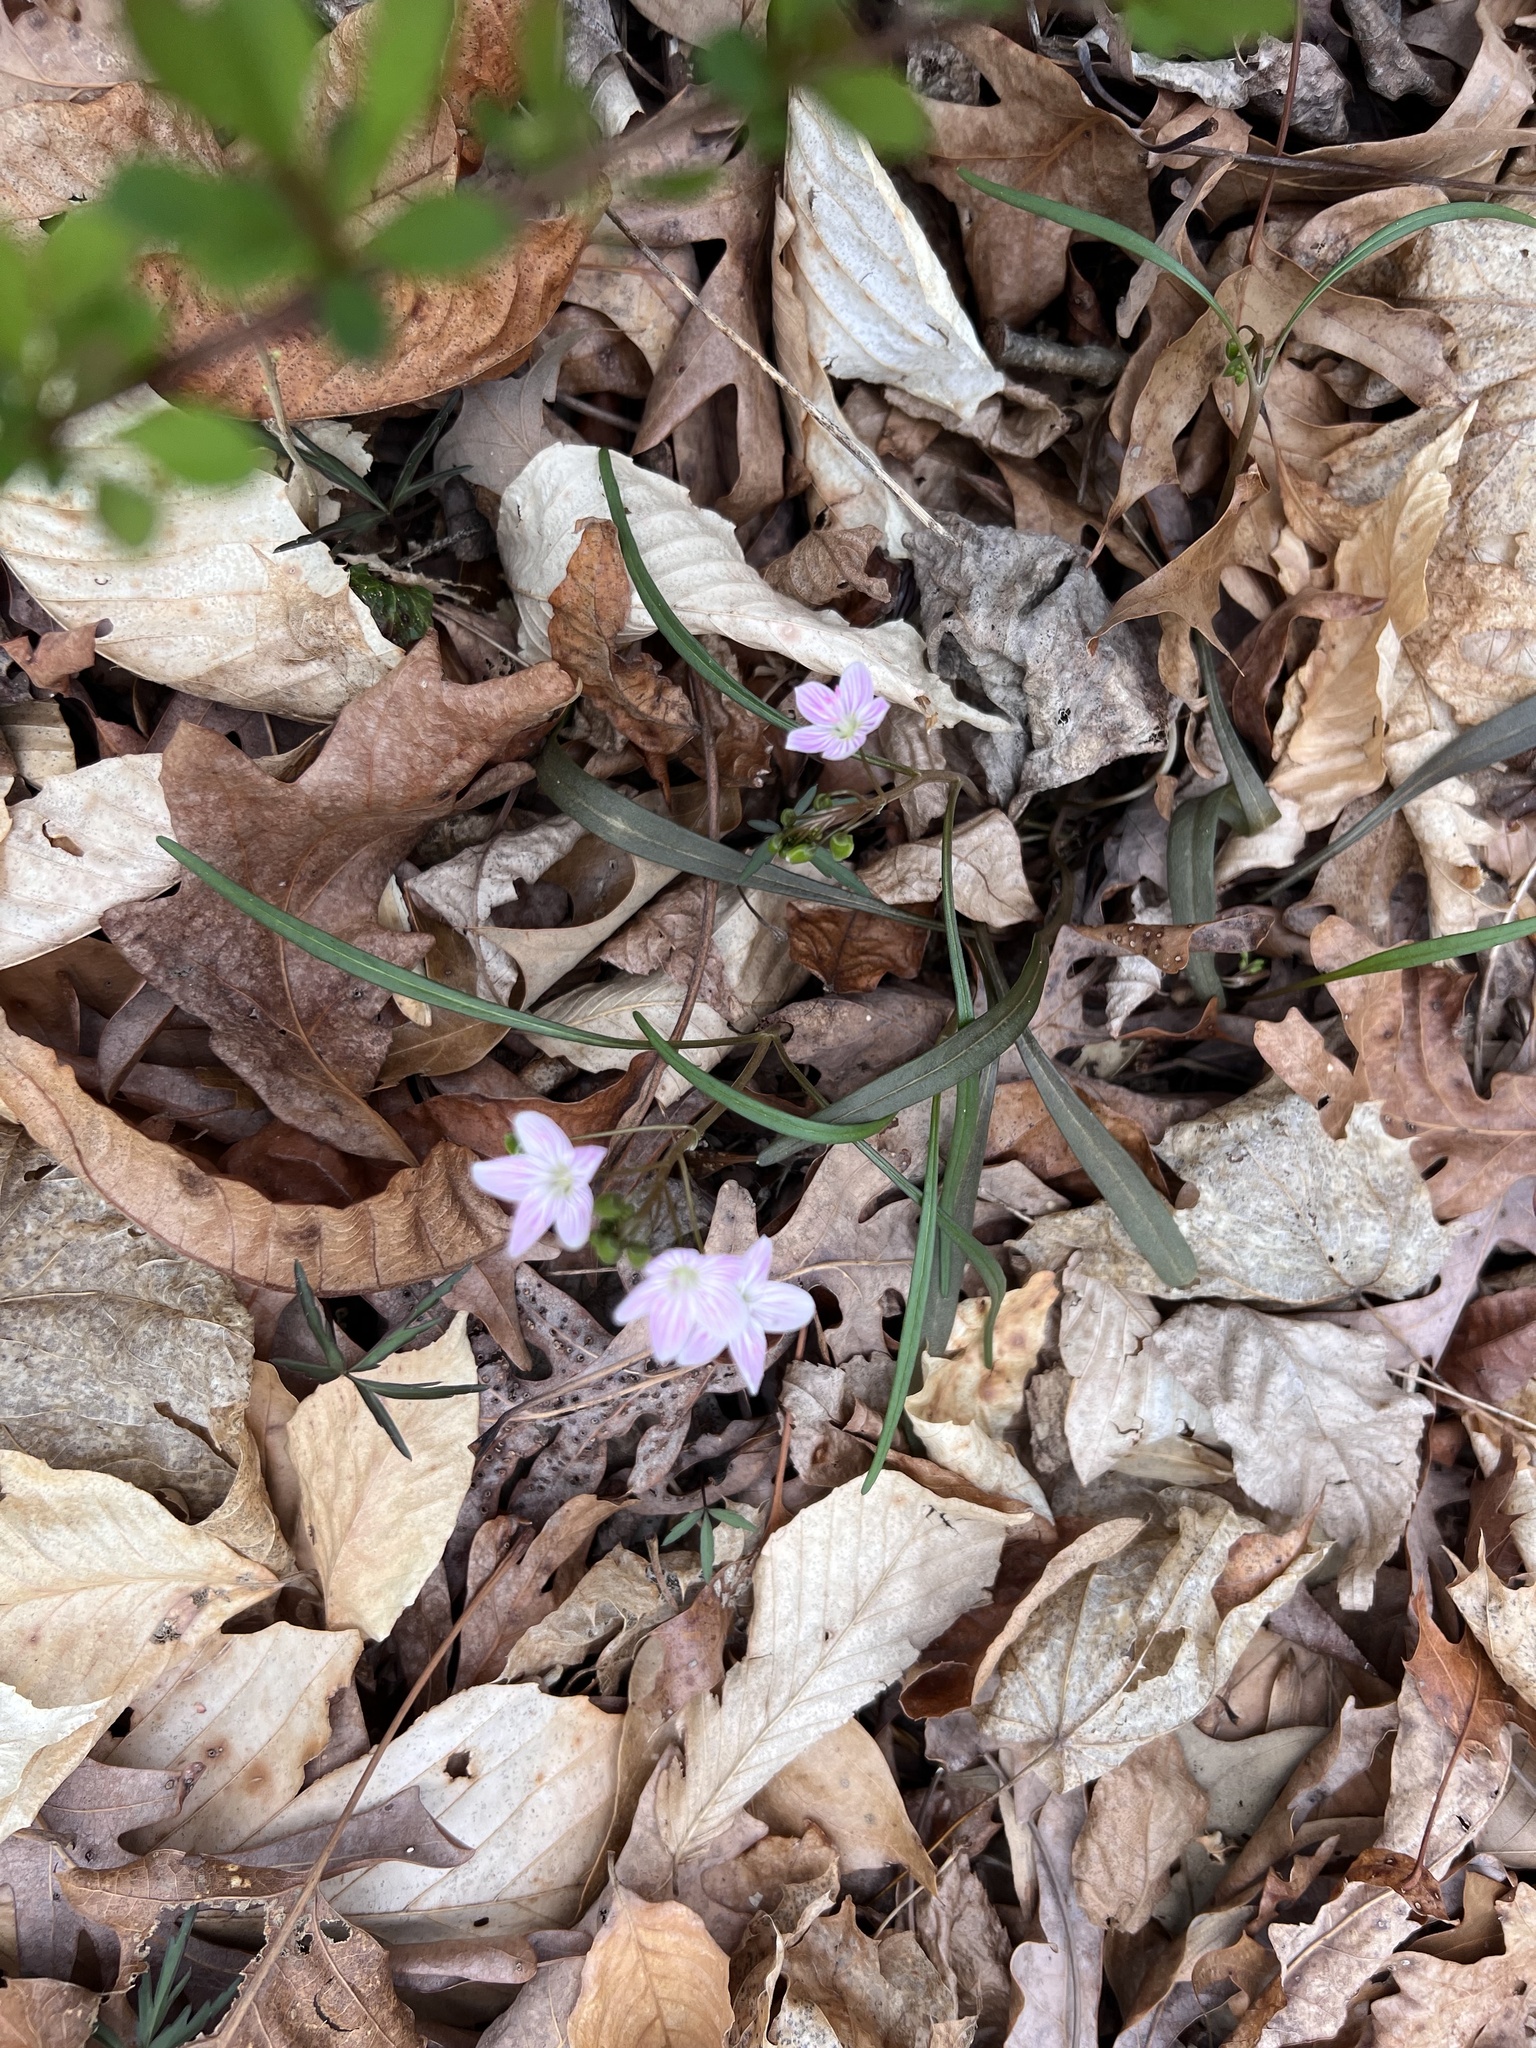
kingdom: Plantae
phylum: Tracheophyta
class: Magnoliopsida
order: Caryophyllales
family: Montiaceae
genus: Claytonia
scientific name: Claytonia virginica
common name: Virginia springbeauty
